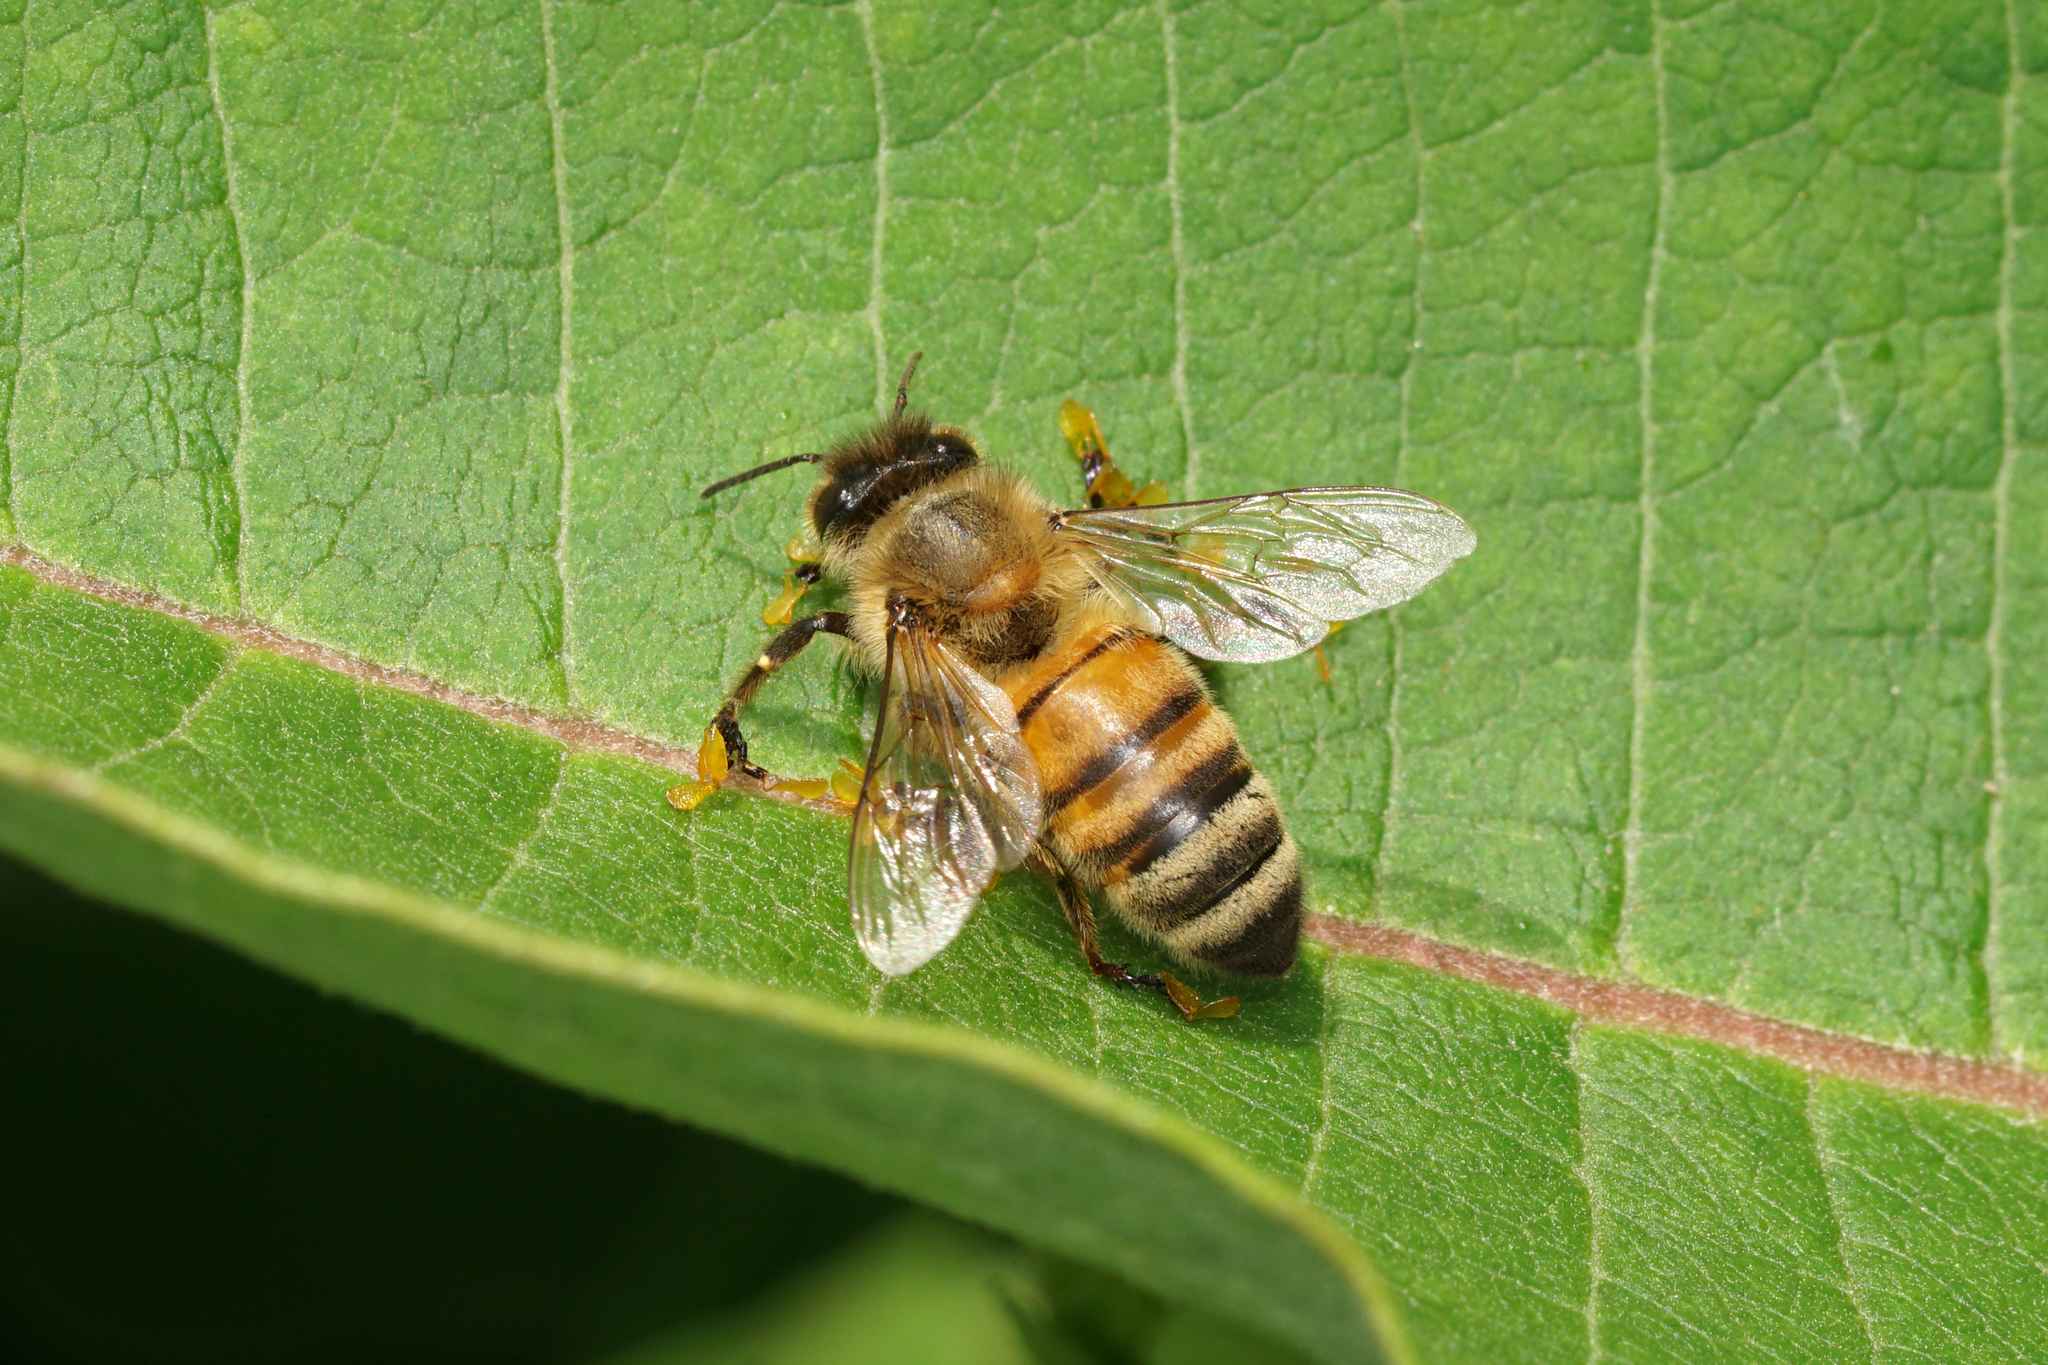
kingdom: Animalia
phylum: Arthropoda
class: Insecta
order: Hymenoptera
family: Apidae
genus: Apis
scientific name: Apis mellifera
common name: Honey bee
